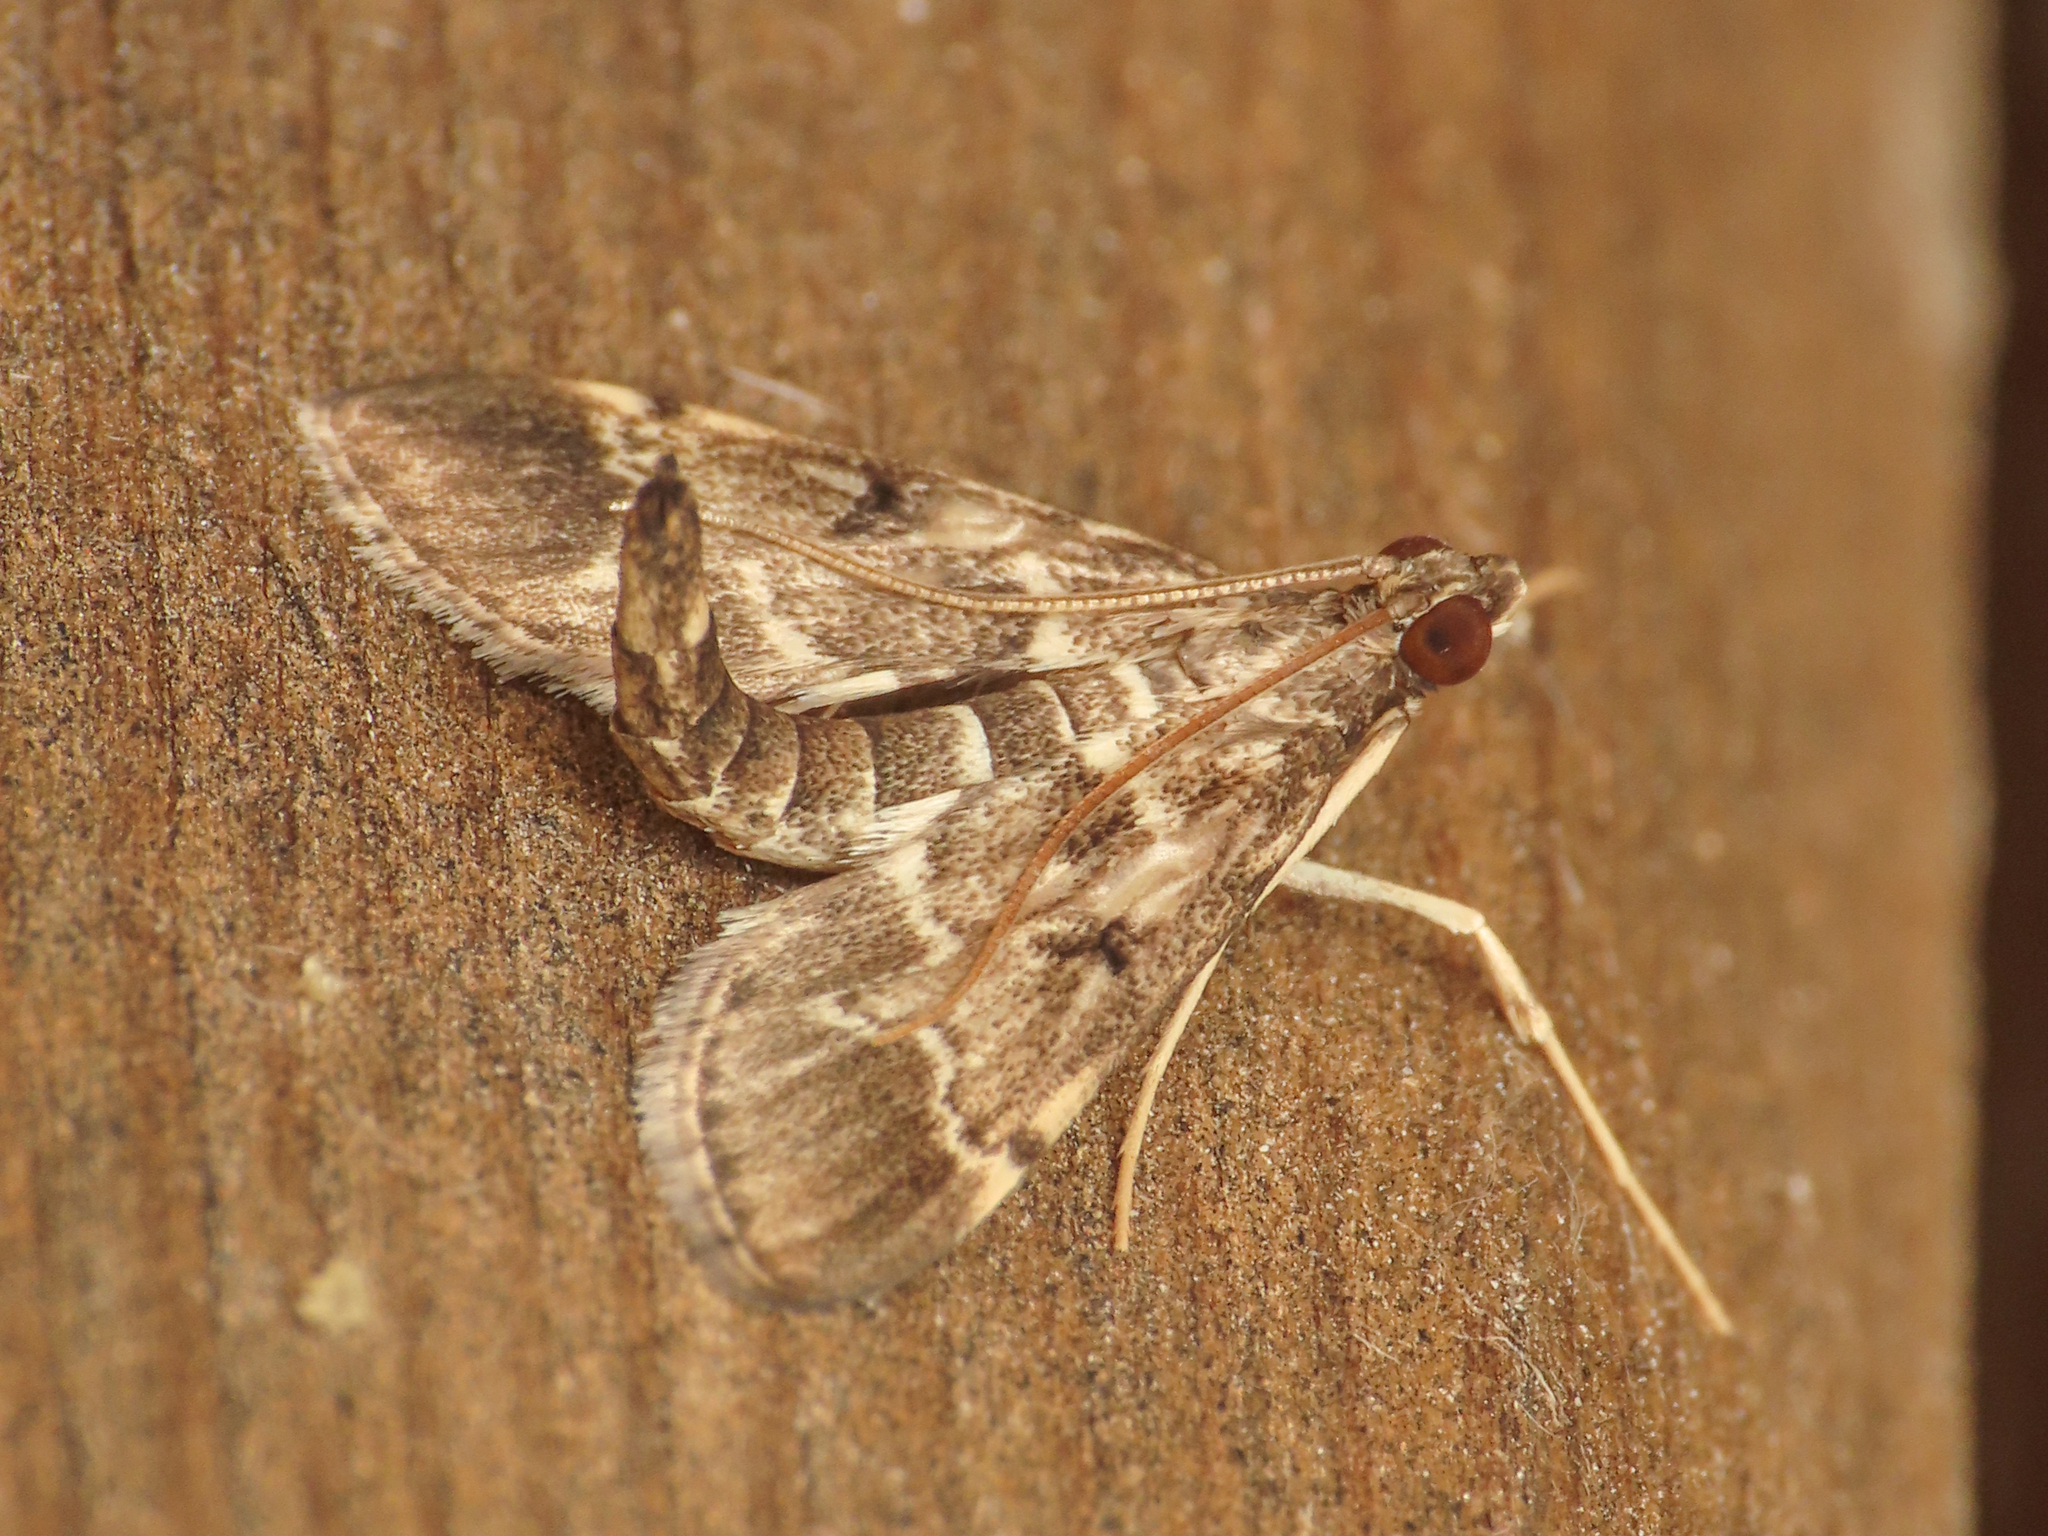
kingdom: Animalia
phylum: Arthropoda
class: Insecta
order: Lepidoptera
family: Crambidae
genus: Duponchelia
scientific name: Duponchelia fovealis
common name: Crambid moth
